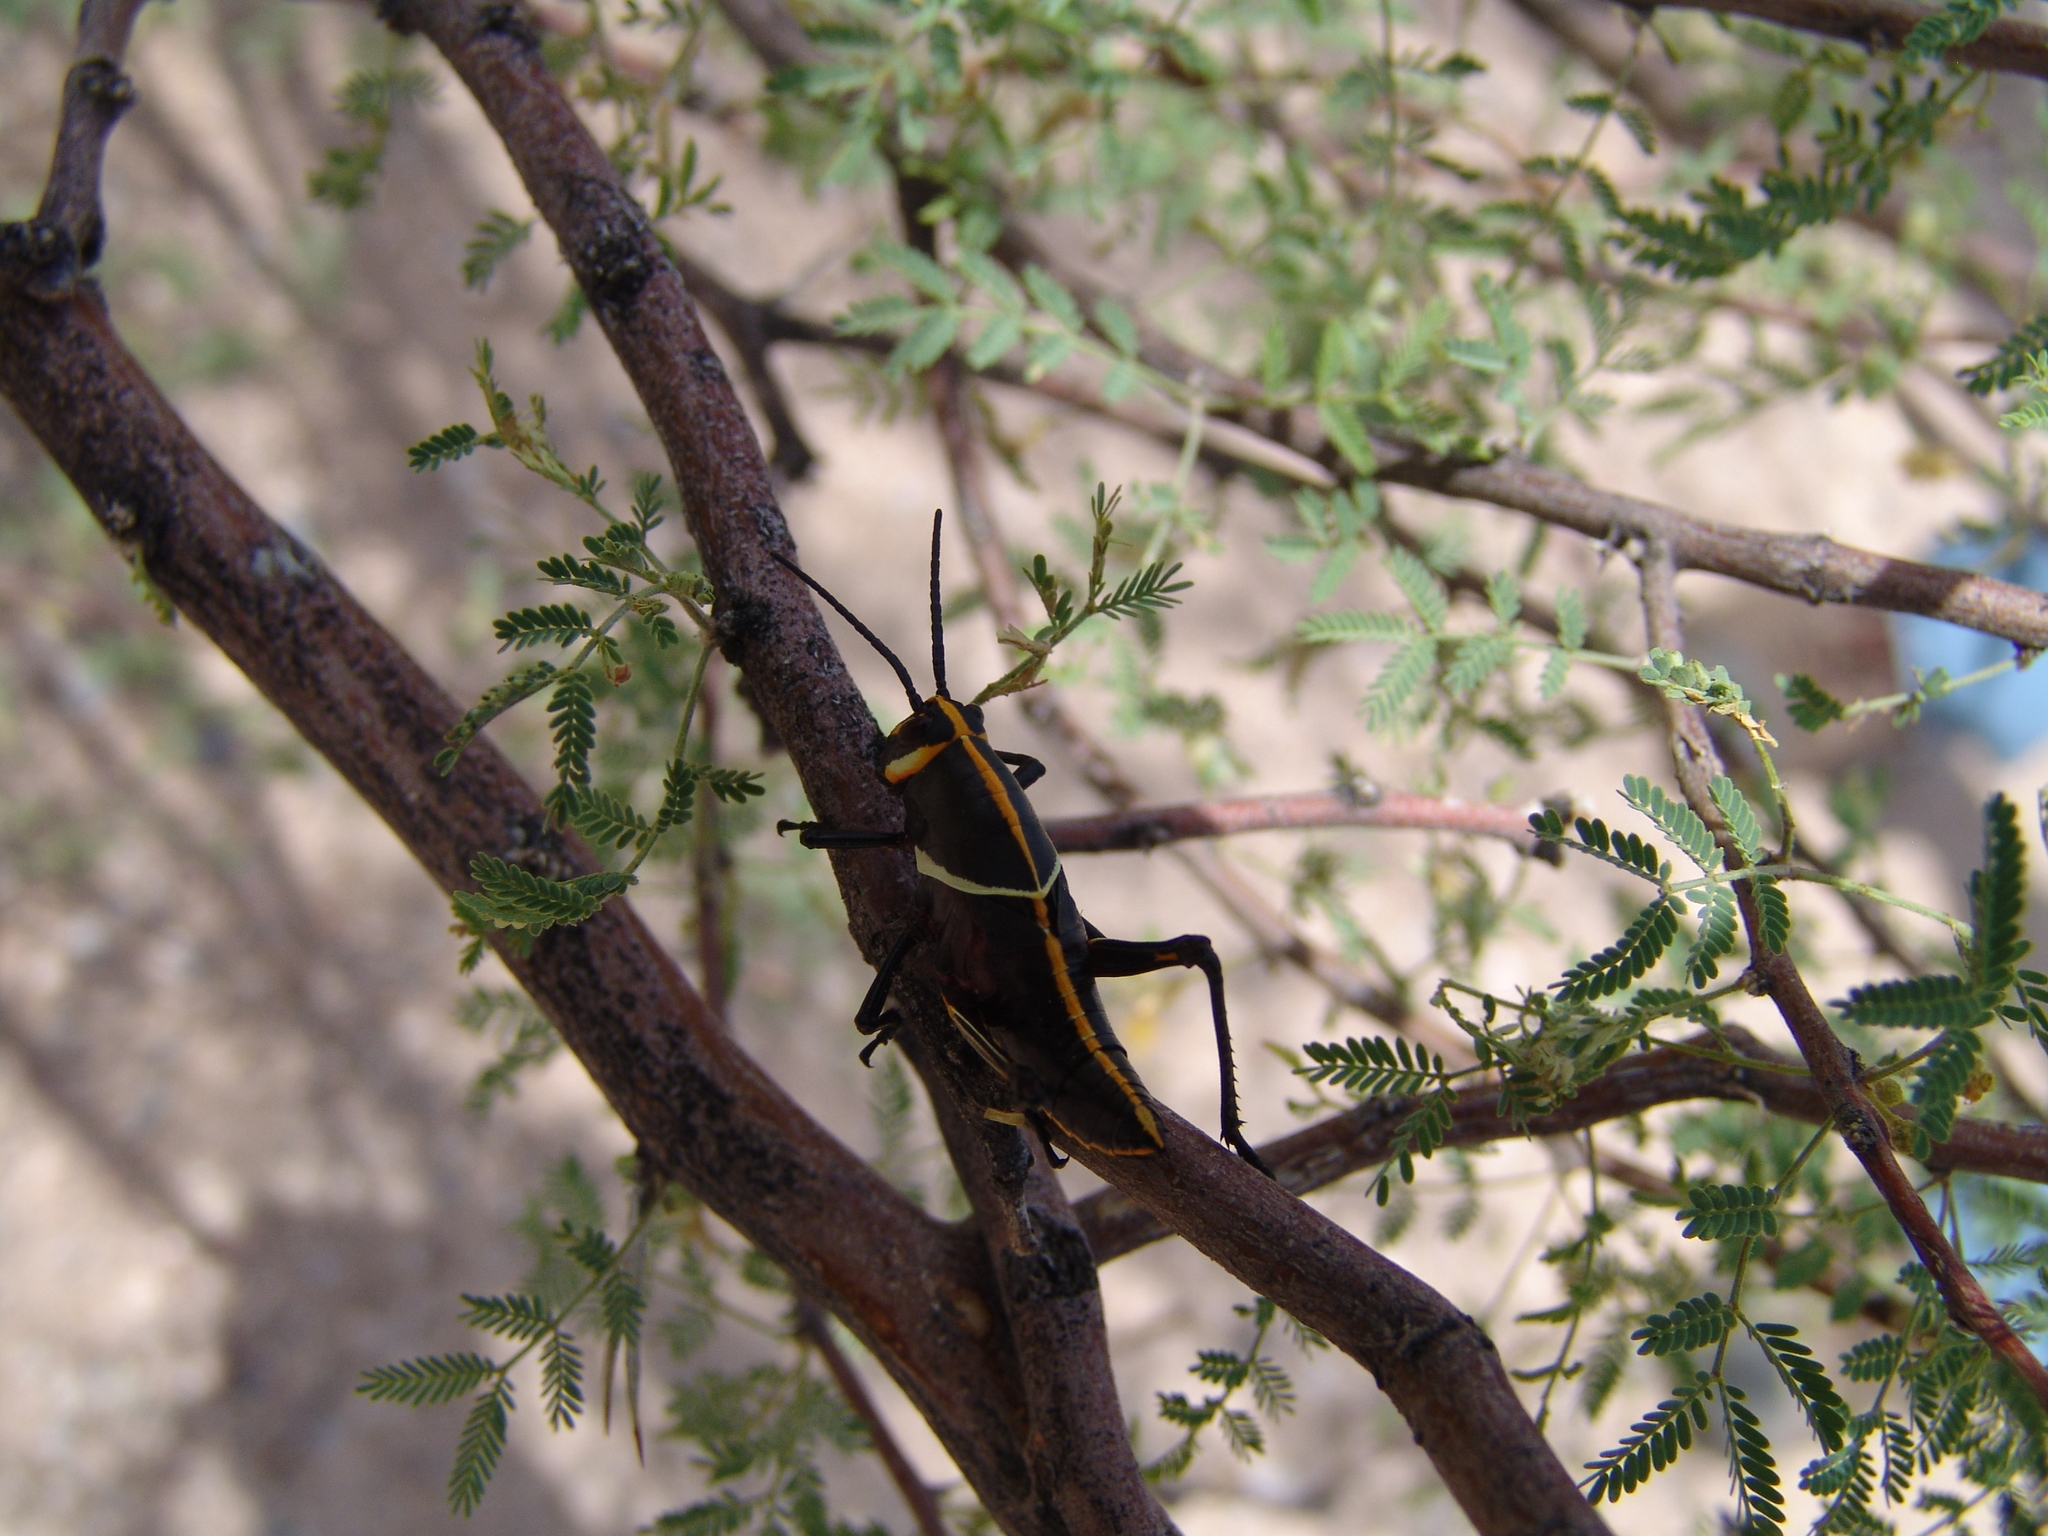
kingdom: Animalia
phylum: Arthropoda
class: Insecta
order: Orthoptera
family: Romaleidae
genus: Romalea
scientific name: Romalea
